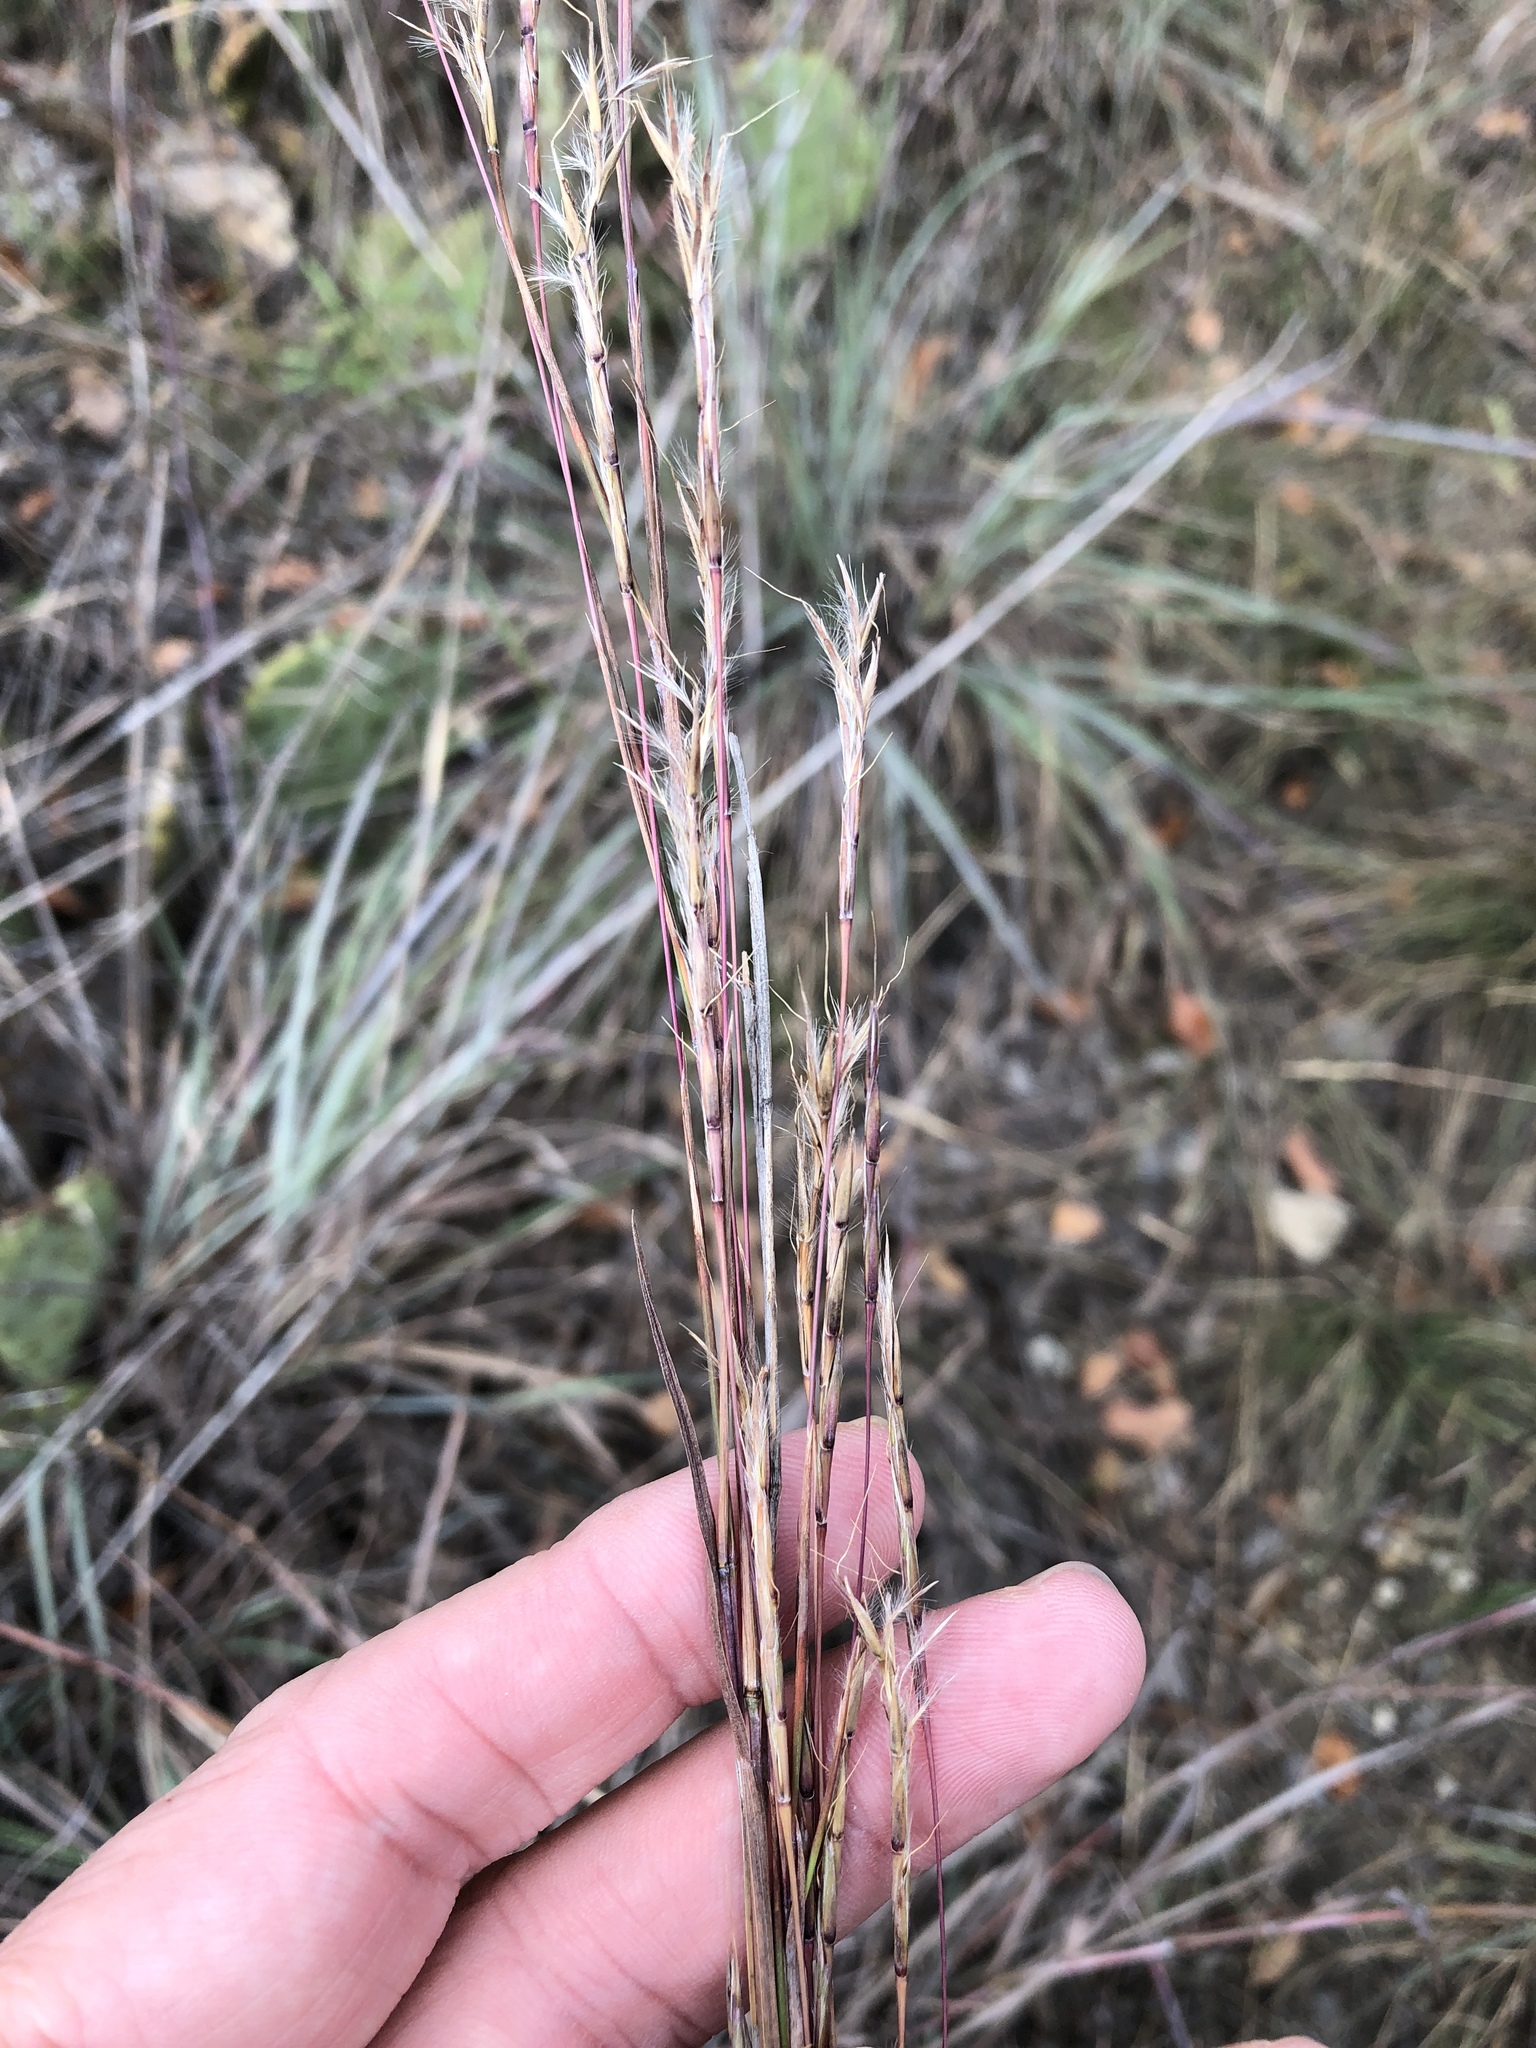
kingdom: Plantae
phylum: Tracheophyta
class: Liliopsida
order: Poales
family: Poaceae
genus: Schizachyrium
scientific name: Schizachyrium scoparium
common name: Little bluestem
